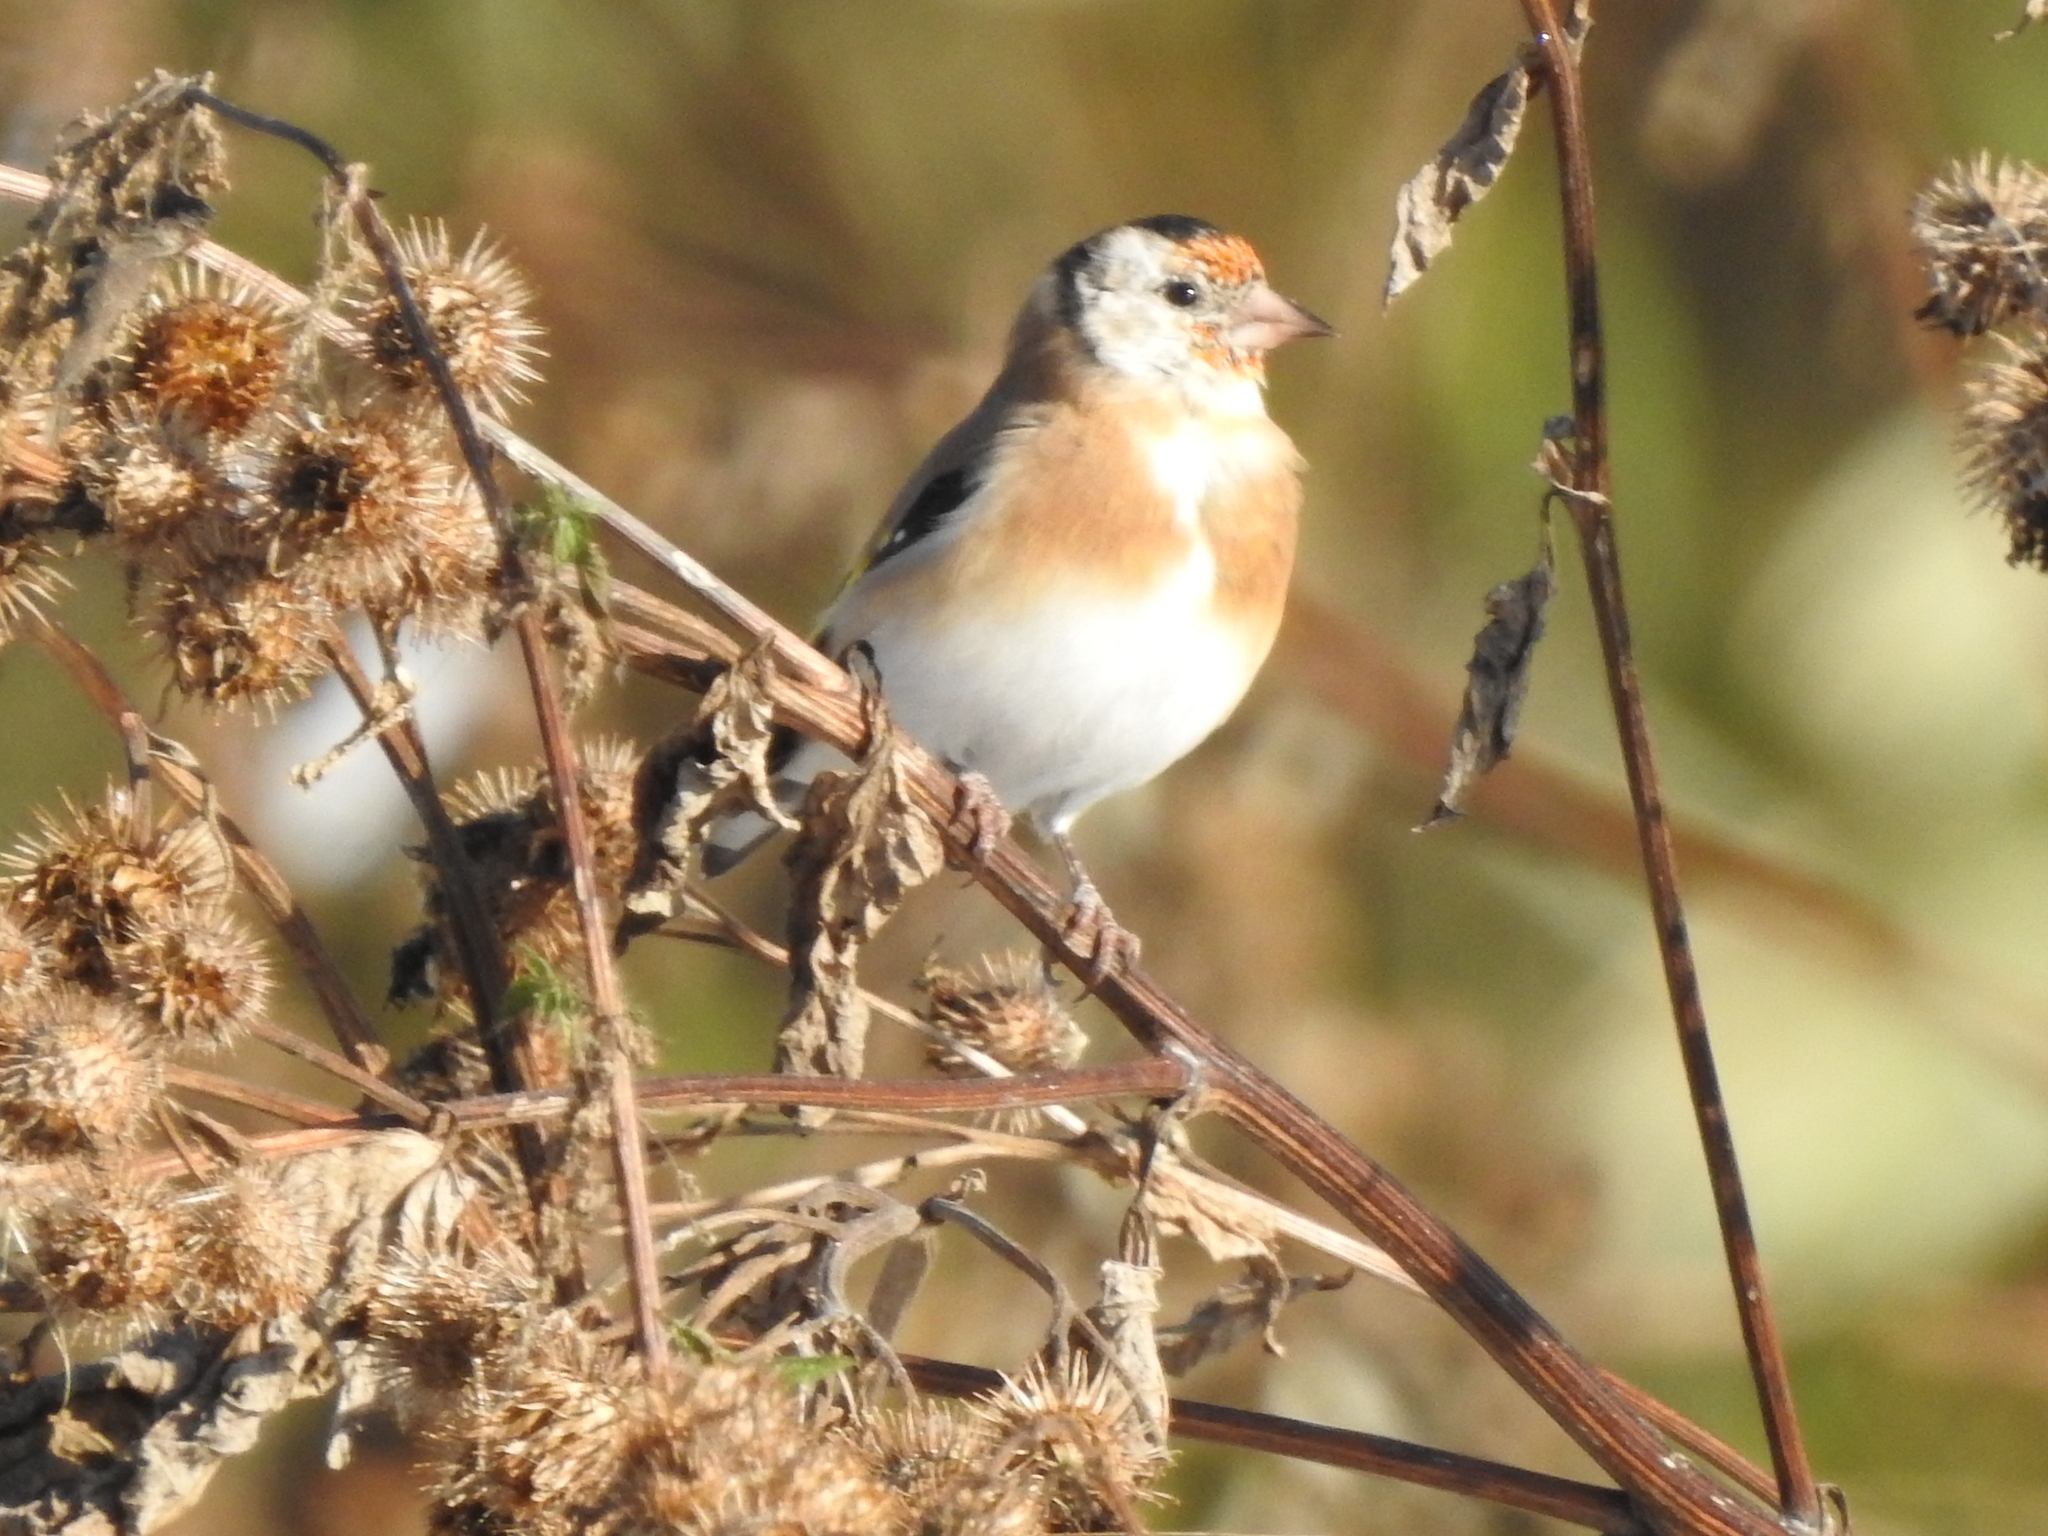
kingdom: Animalia
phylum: Chordata
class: Aves
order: Passeriformes
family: Fringillidae
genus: Carduelis
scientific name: Carduelis carduelis
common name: European goldfinch
